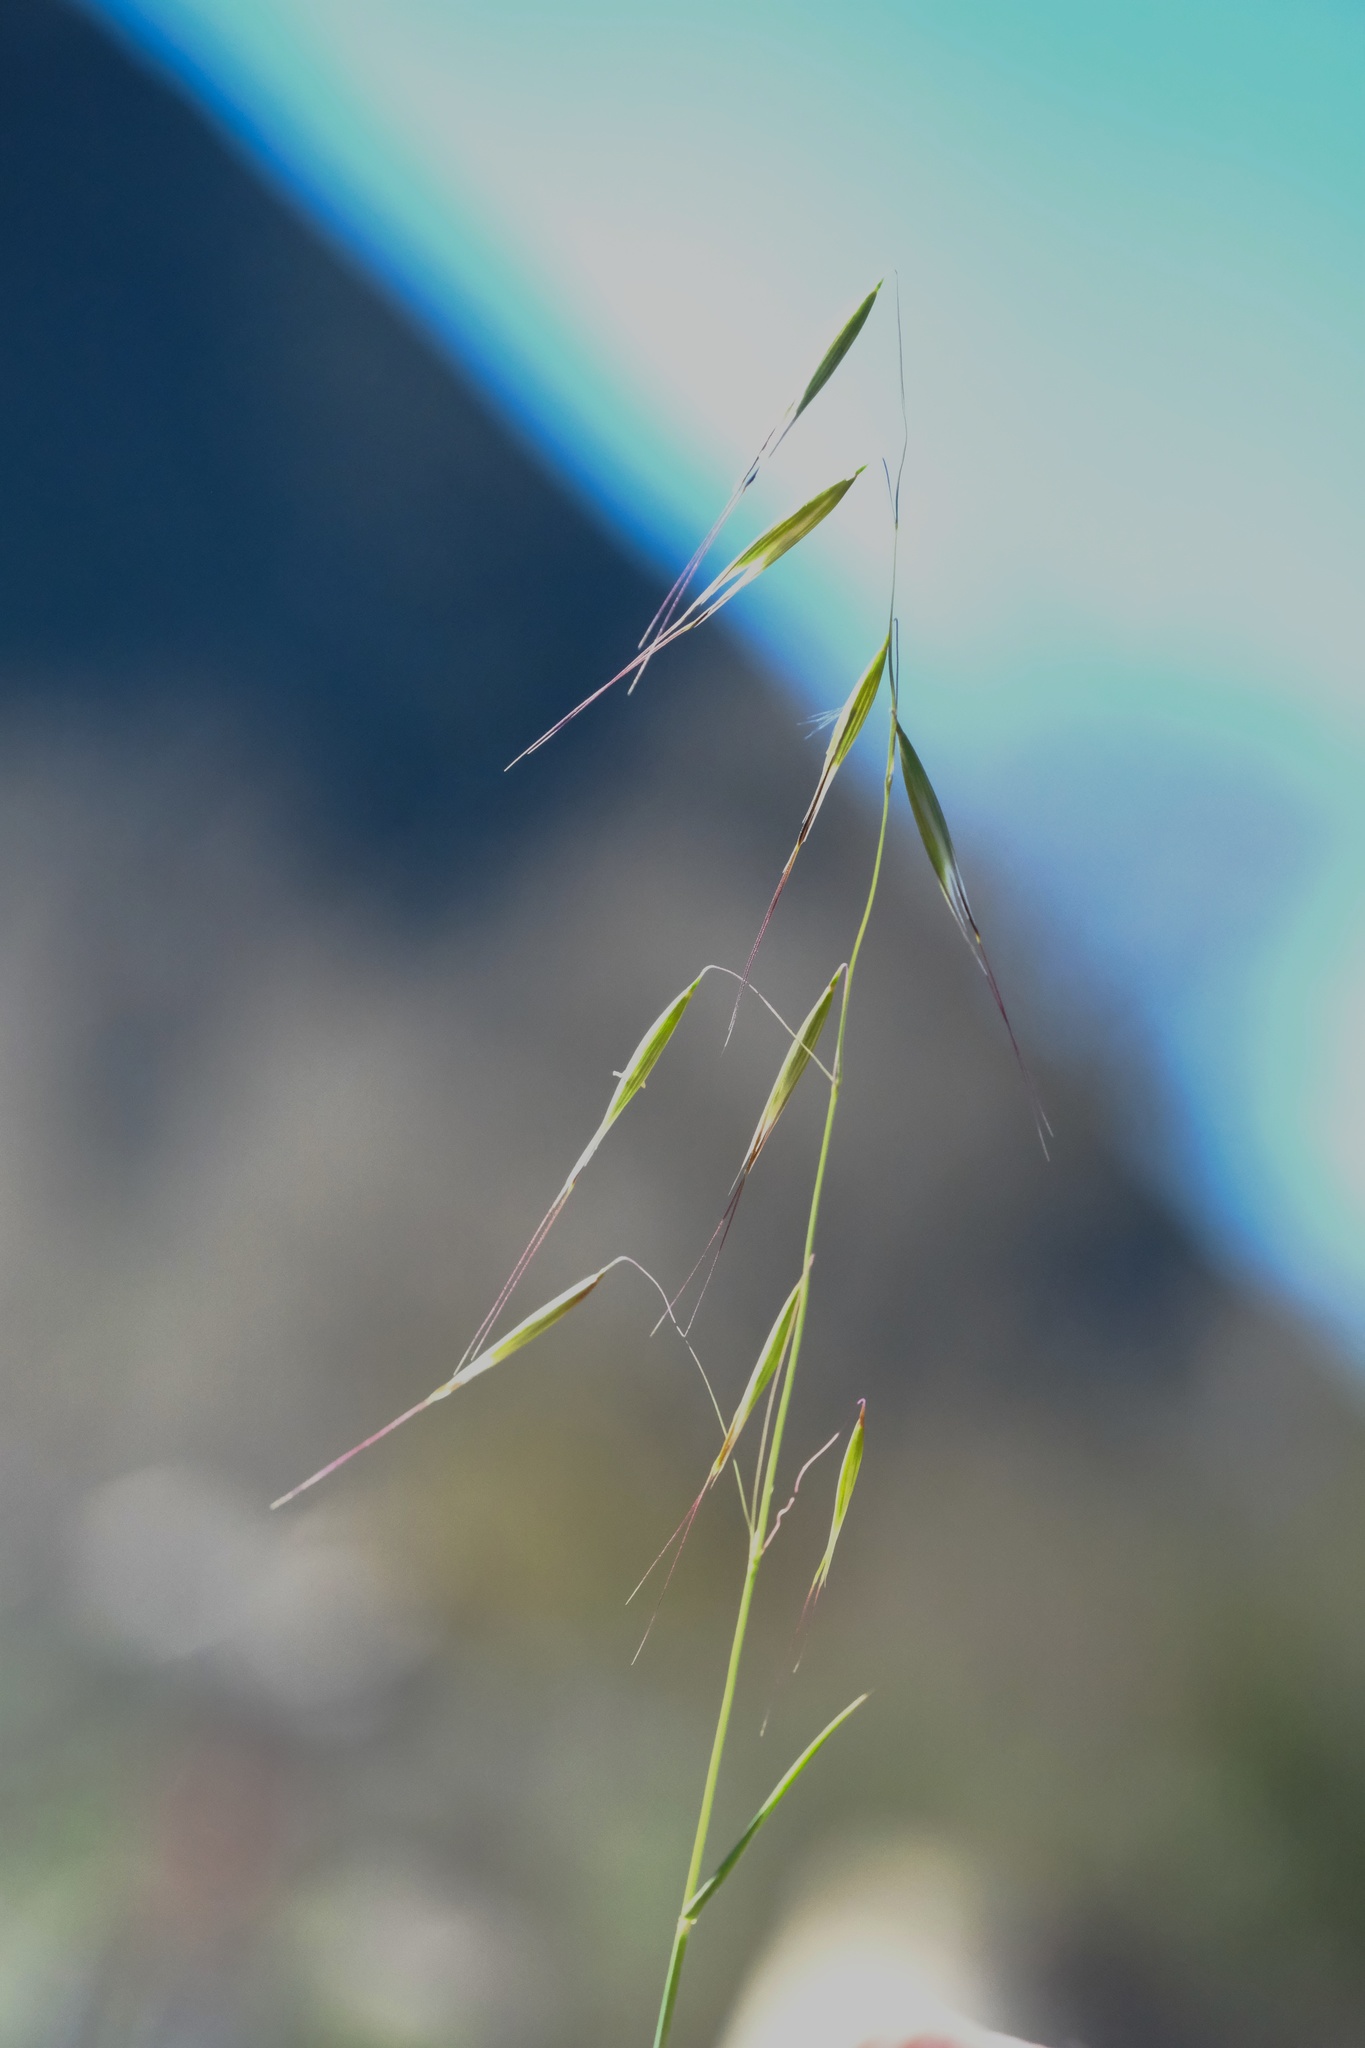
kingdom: Plantae
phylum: Tracheophyta
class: Liliopsida
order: Poales
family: Poaceae
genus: Avena
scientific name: Avena barbata
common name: Slender oat
